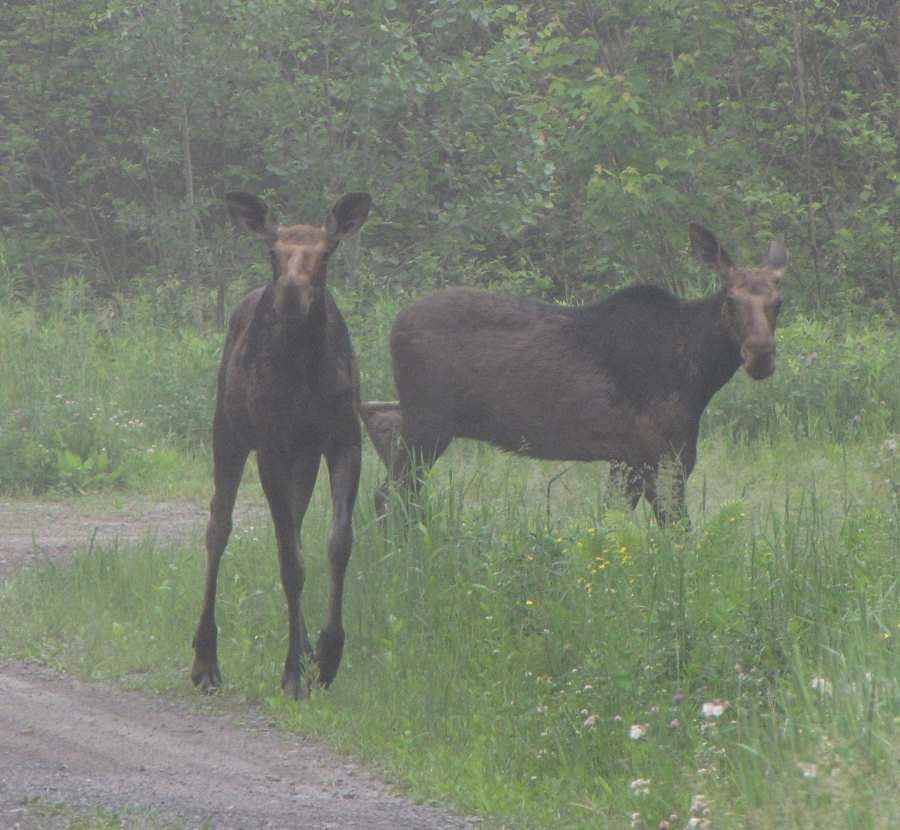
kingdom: Animalia
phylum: Chordata
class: Mammalia
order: Artiodactyla
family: Cervidae
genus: Alces
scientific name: Alces alces
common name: Moose
